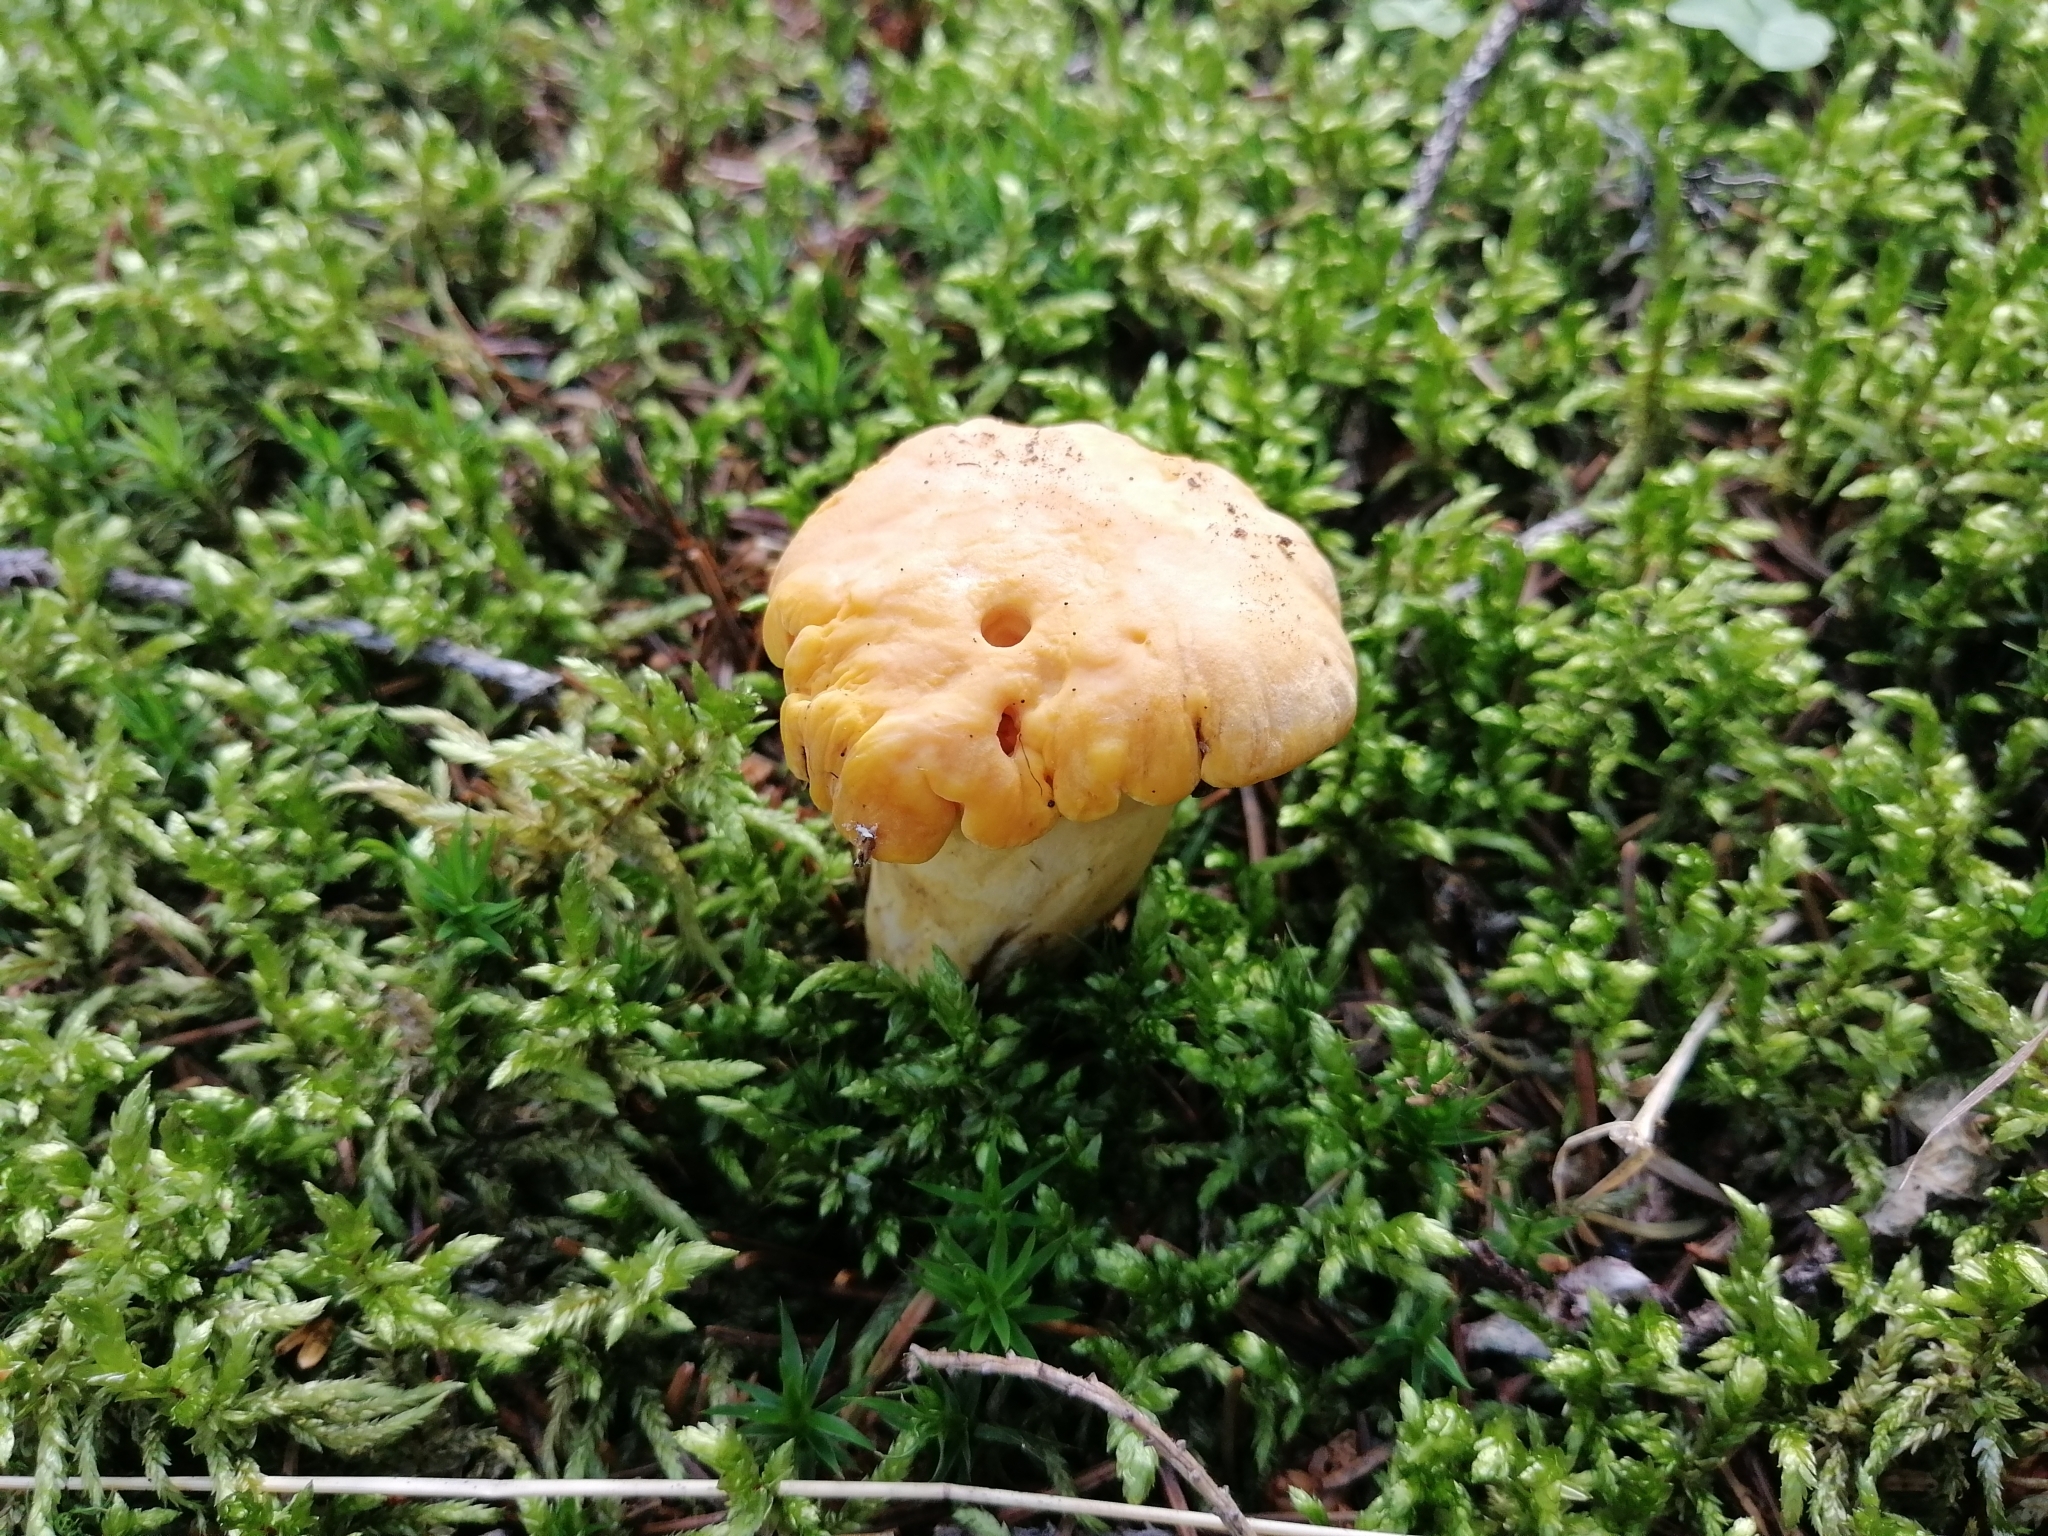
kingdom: Fungi
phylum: Basidiomycota
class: Agaricomycetes
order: Cantharellales
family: Hydnaceae
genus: Cantharellus
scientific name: Cantharellus cibarius
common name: Chanterelle
